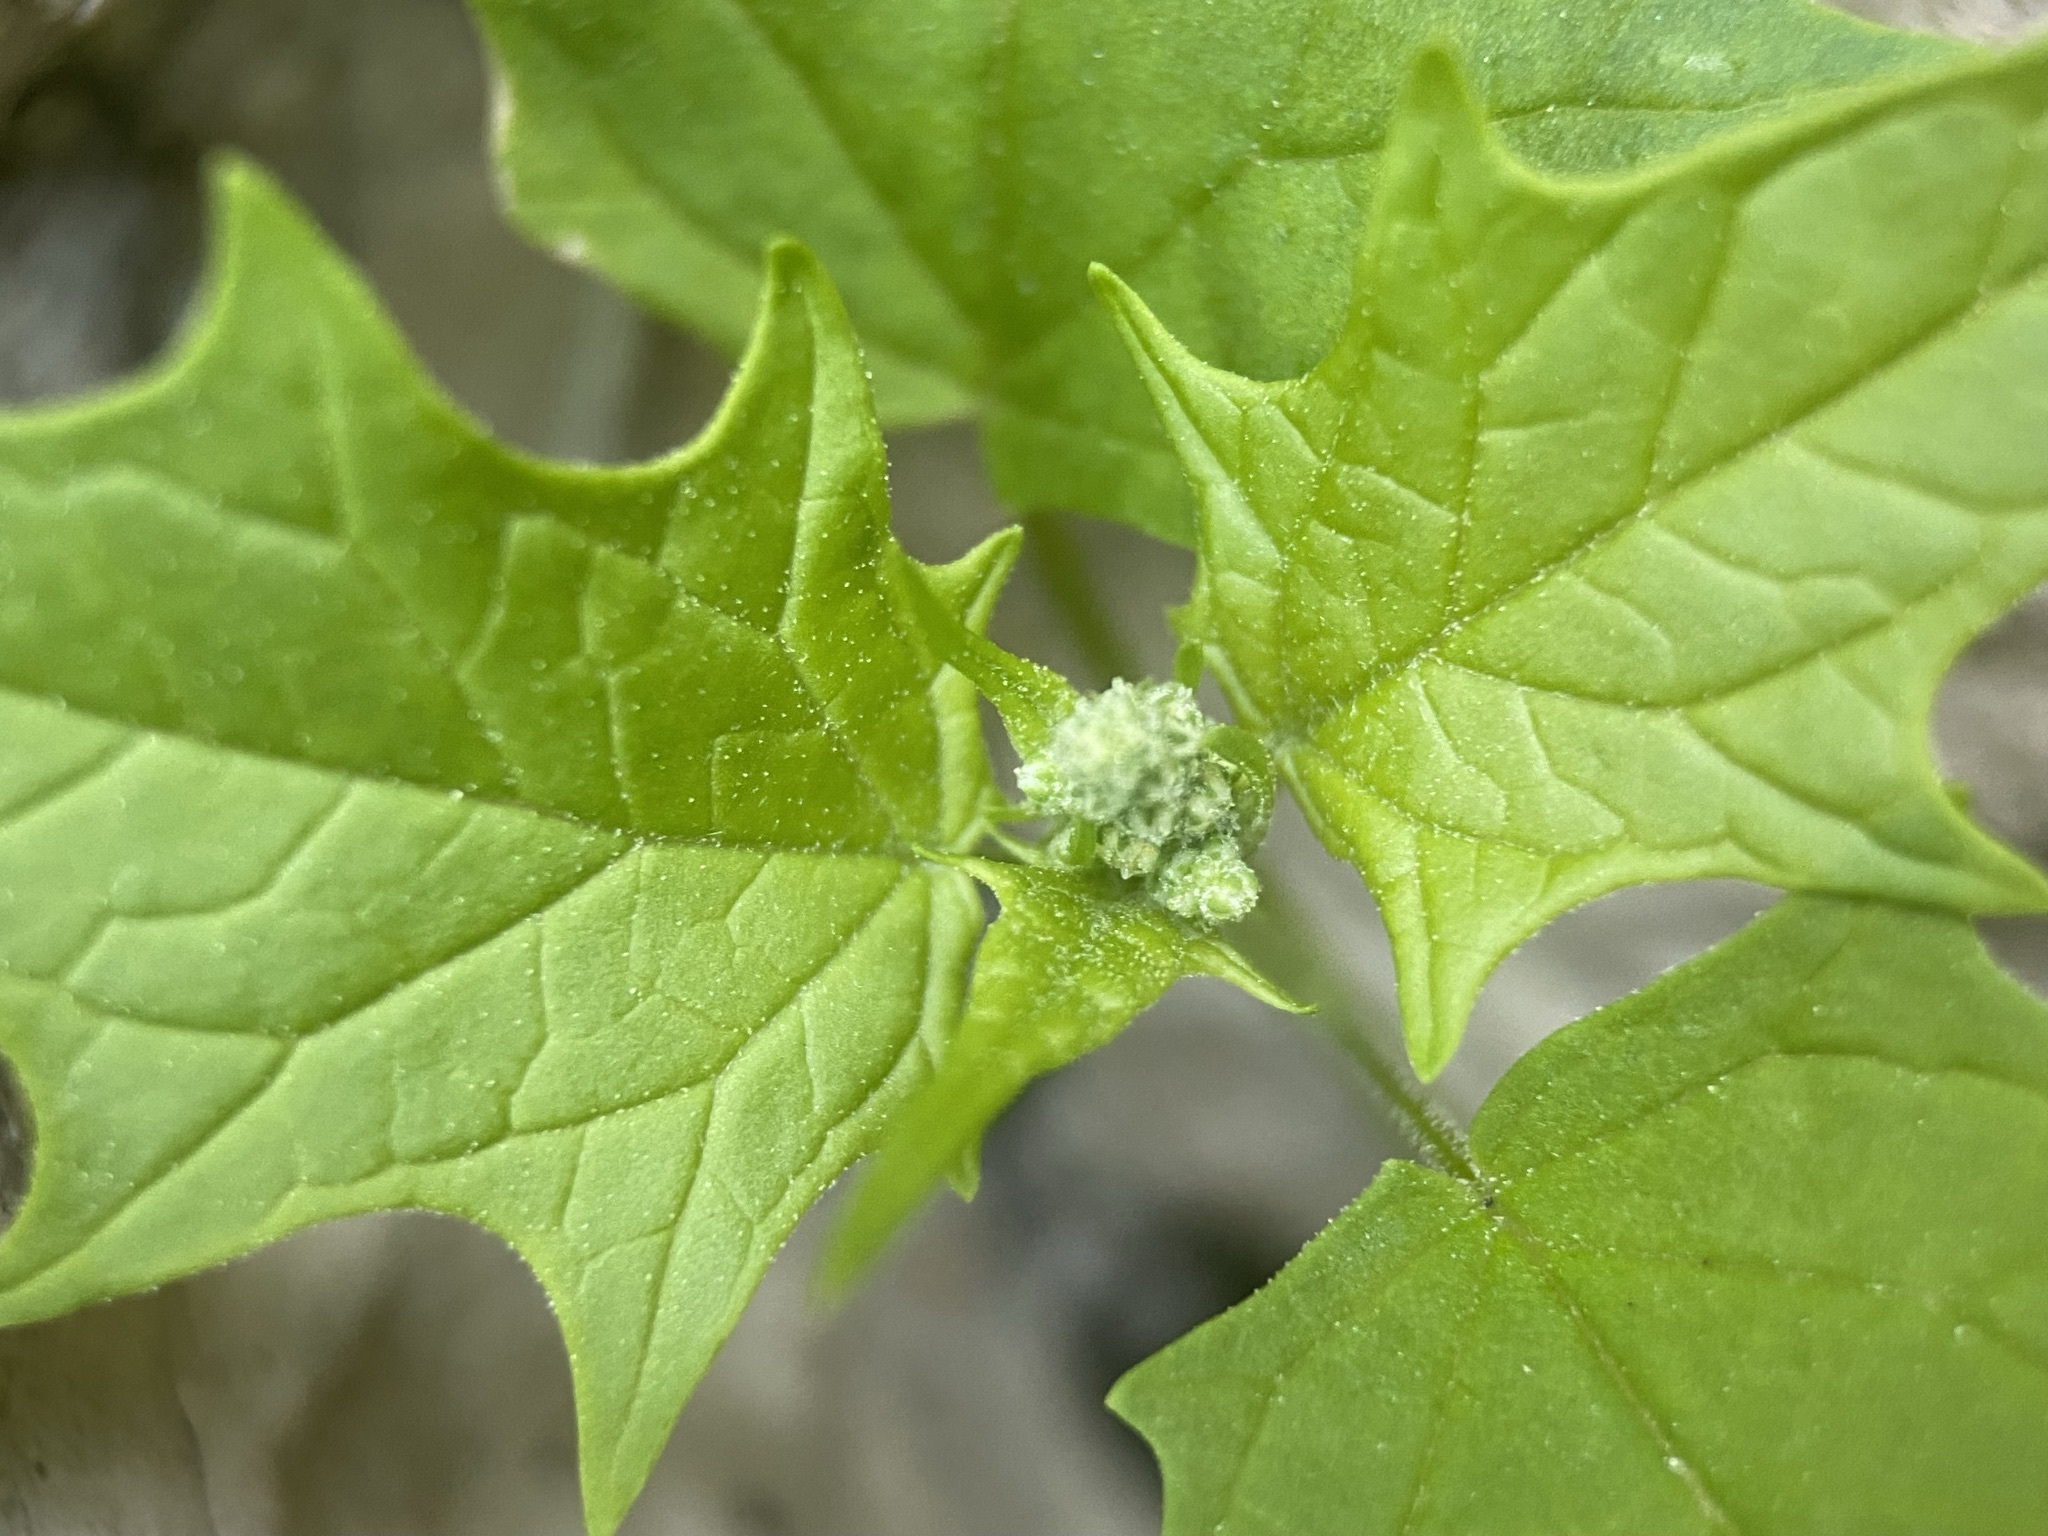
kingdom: Plantae
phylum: Tracheophyta
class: Magnoliopsida
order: Caryophyllales
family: Amaranthaceae
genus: Chenopodiastrum
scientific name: Chenopodiastrum hybridum
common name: Mapleleaf goosefoot
